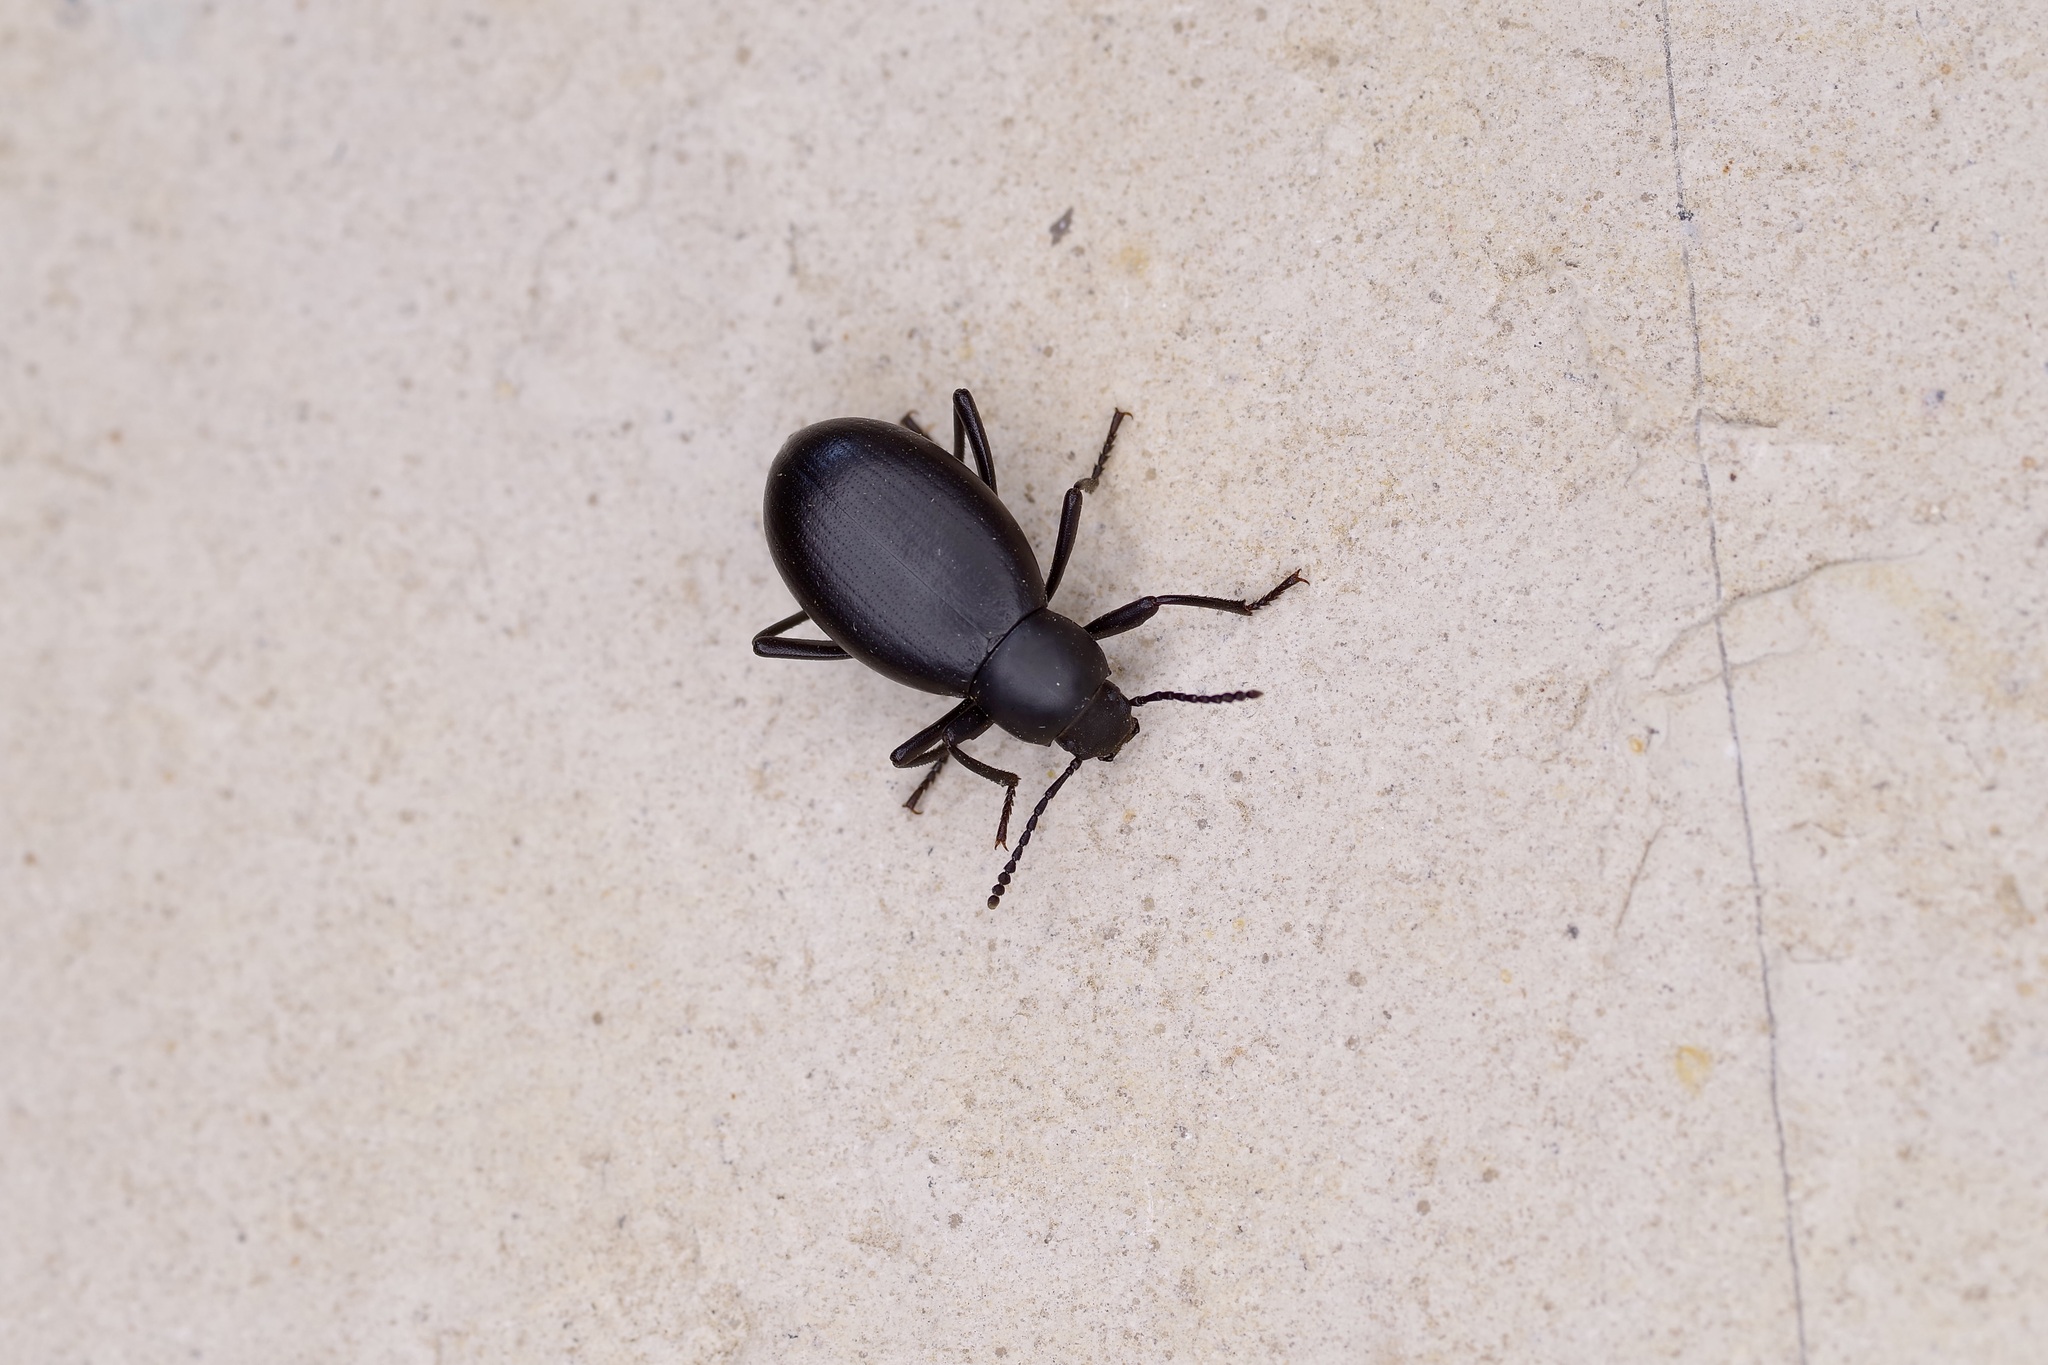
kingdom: Animalia
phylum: Arthropoda
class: Insecta
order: Coleoptera
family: Tenebrionidae
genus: Eleodes
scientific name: Eleodes knullorum
